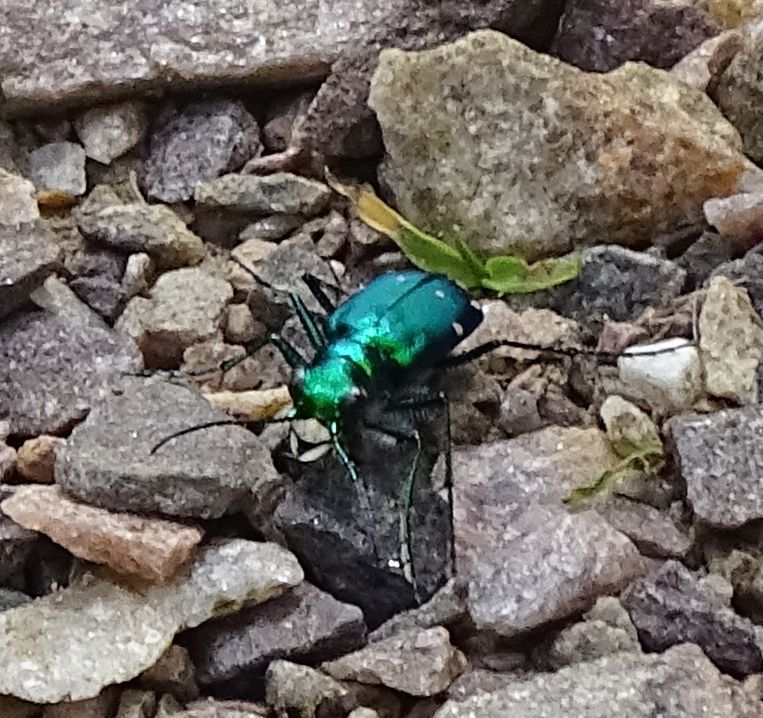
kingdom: Animalia
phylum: Arthropoda
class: Insecta
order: Coleoptera
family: Carabidae
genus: Cicindela
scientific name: Cicindela sexguttata
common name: Six-spotted tiger beetle
